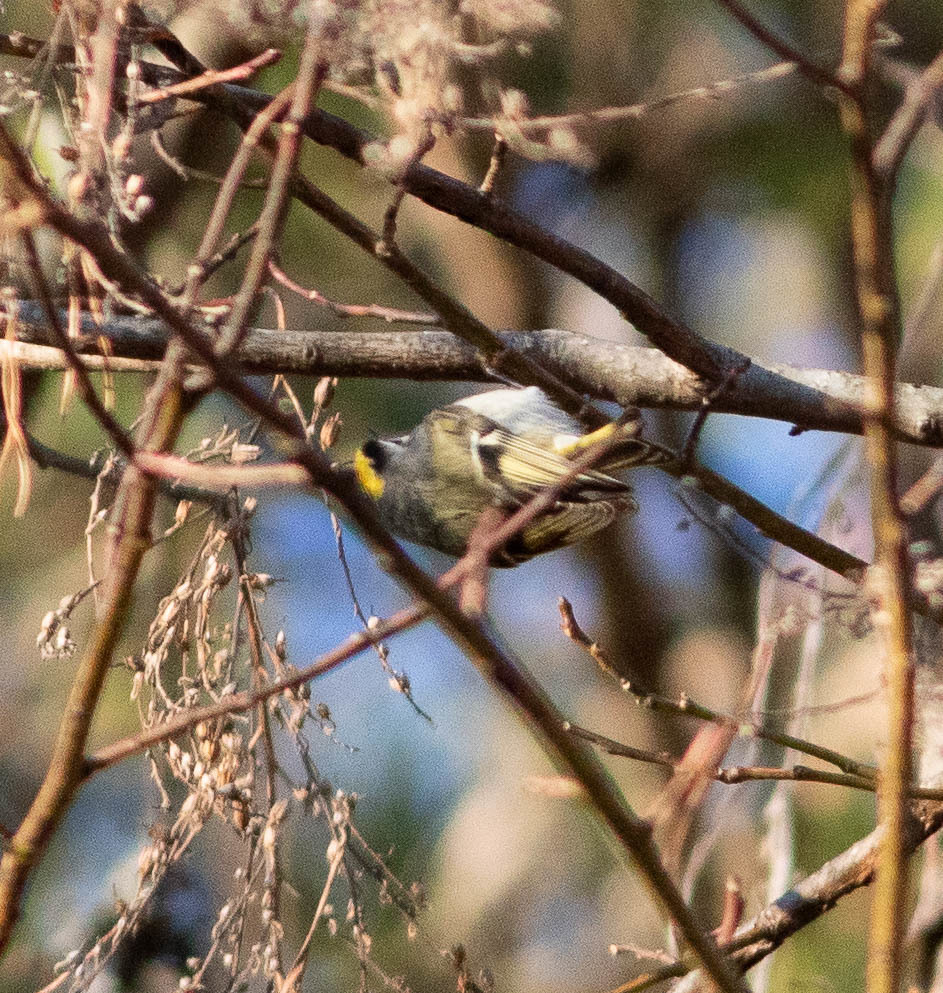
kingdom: Animalia
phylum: Chordata
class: Aves
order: Passeriformes
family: Regulidae
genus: Regulus
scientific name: Regulus satrapa
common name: Golden-crowned kinglet
